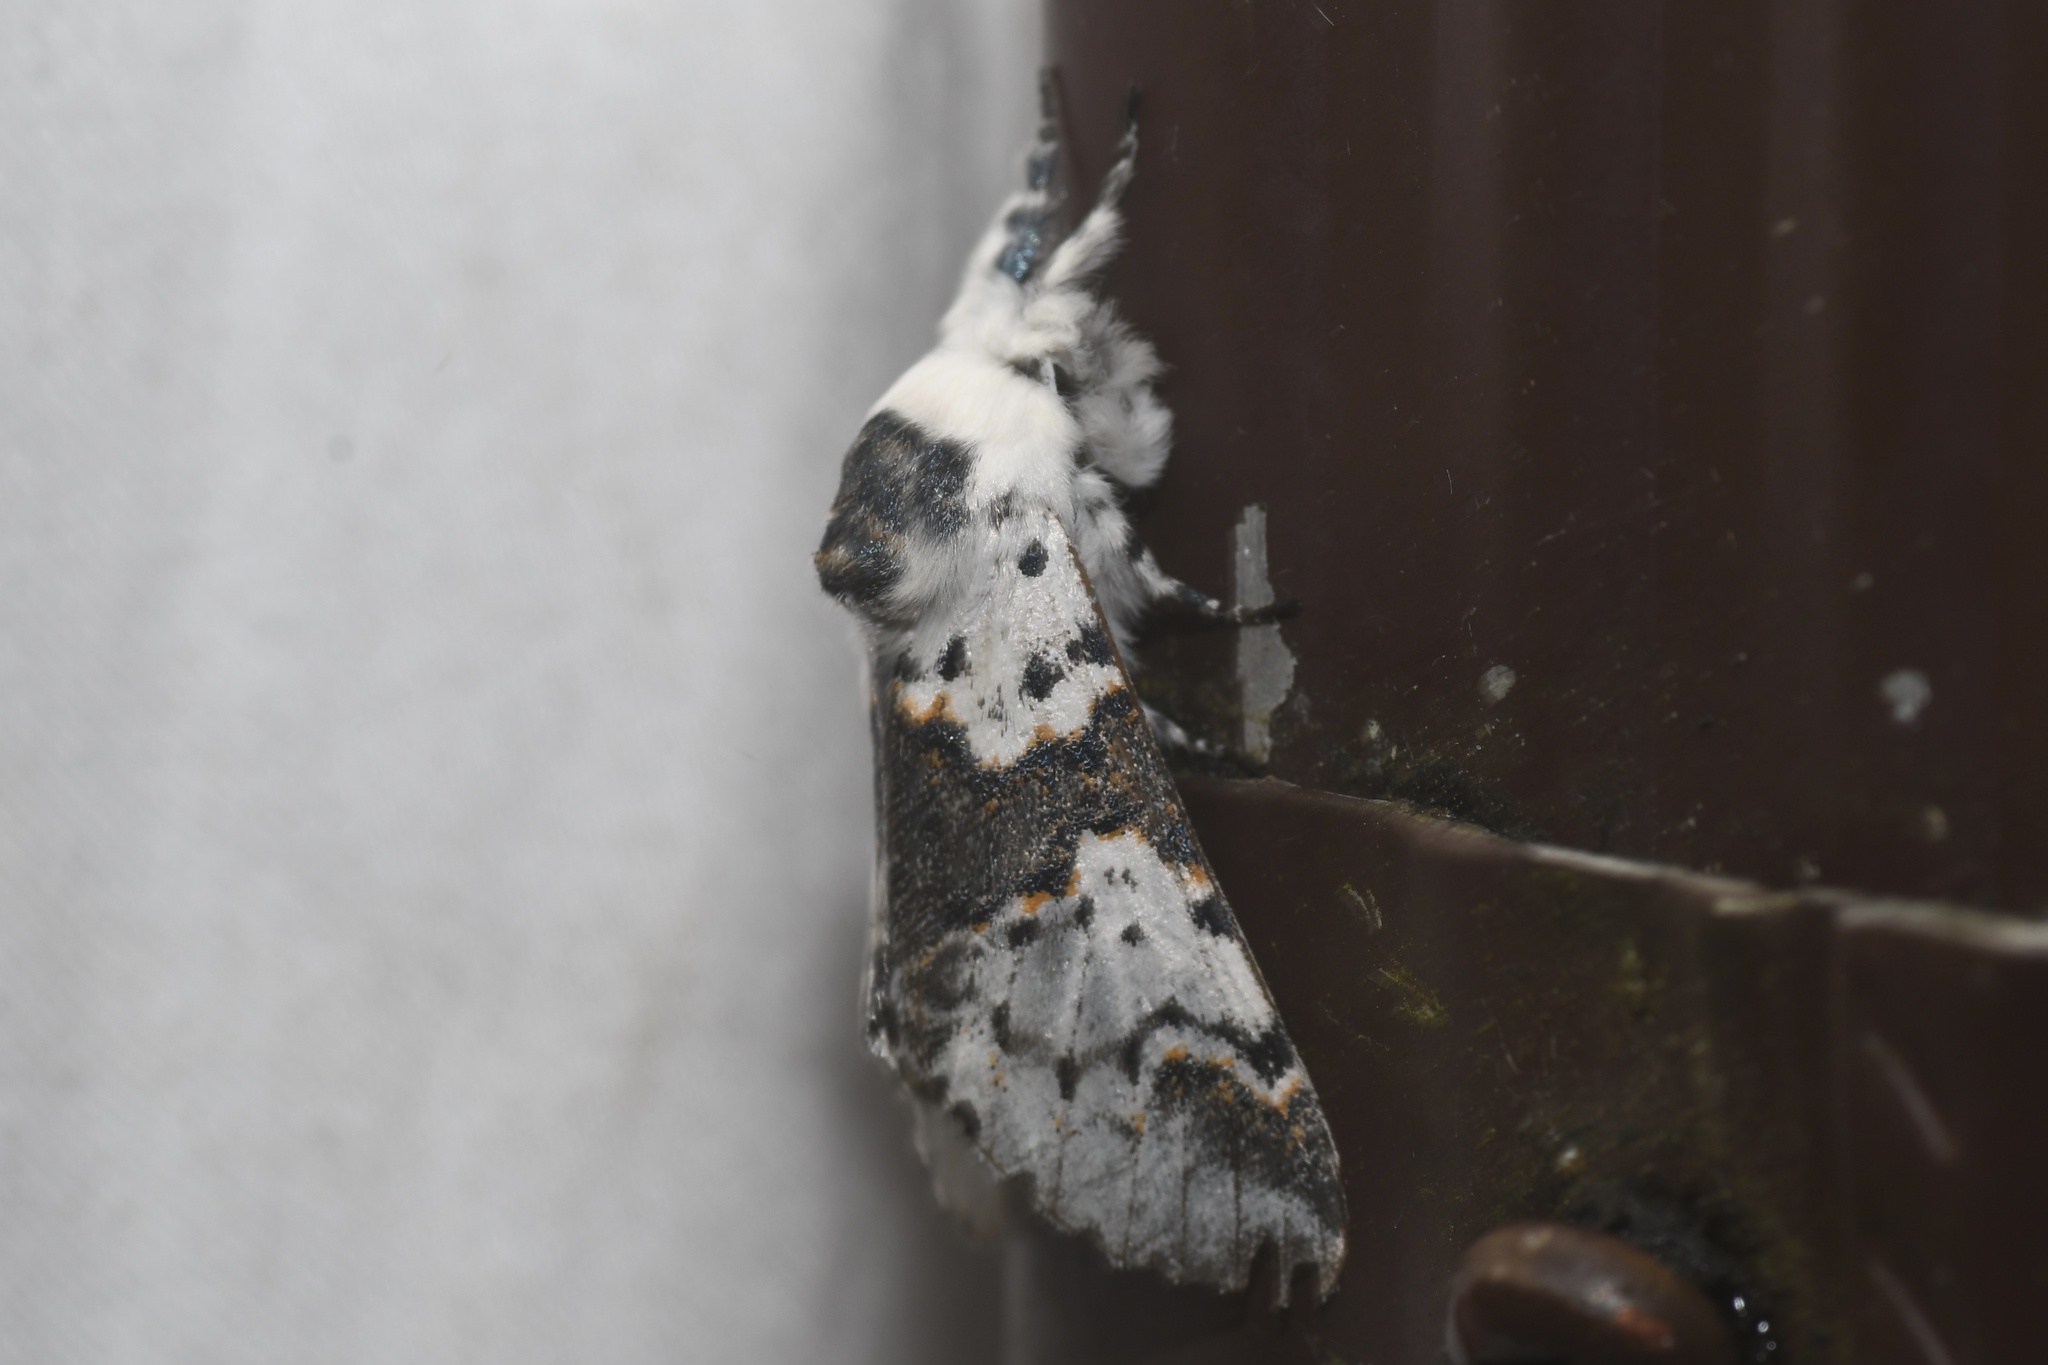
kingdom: Animalia
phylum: Arthropoda
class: Insecta
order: Lepidoptera
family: Notodontidae
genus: Furcula
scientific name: Furcula borealis
